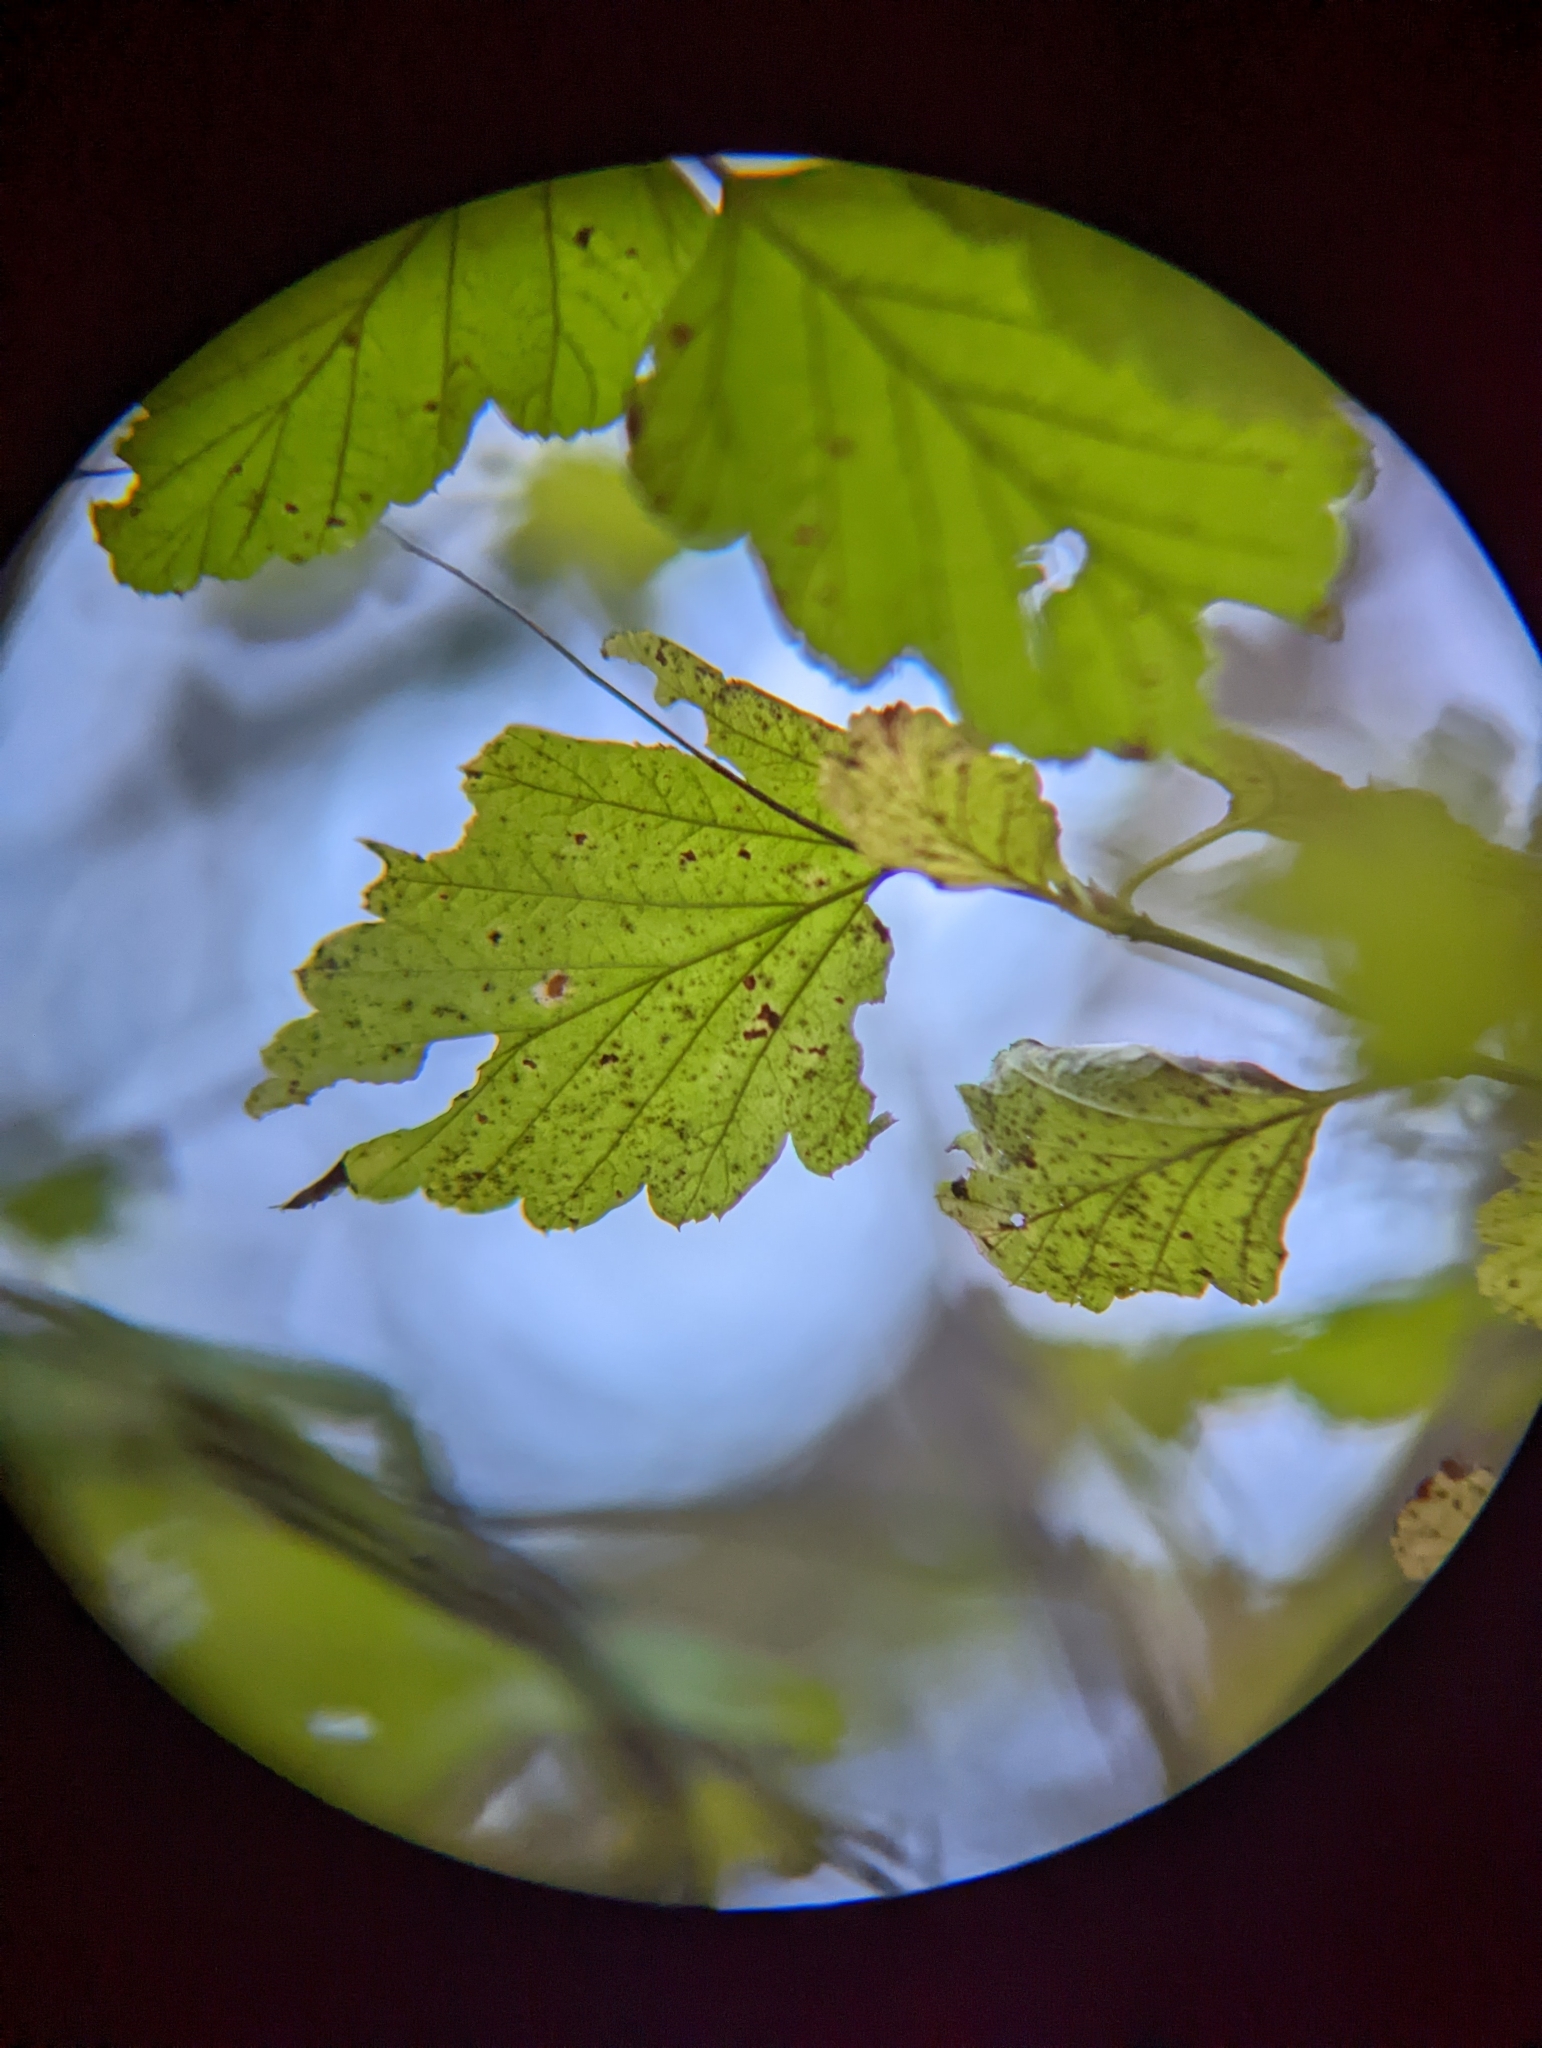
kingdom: Plantae
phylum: Tracheophyta
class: Magnoliopsida
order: Rosales
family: Rosaceae
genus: Holodiscus
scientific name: Holodiscus discolor
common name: Oceanspray
